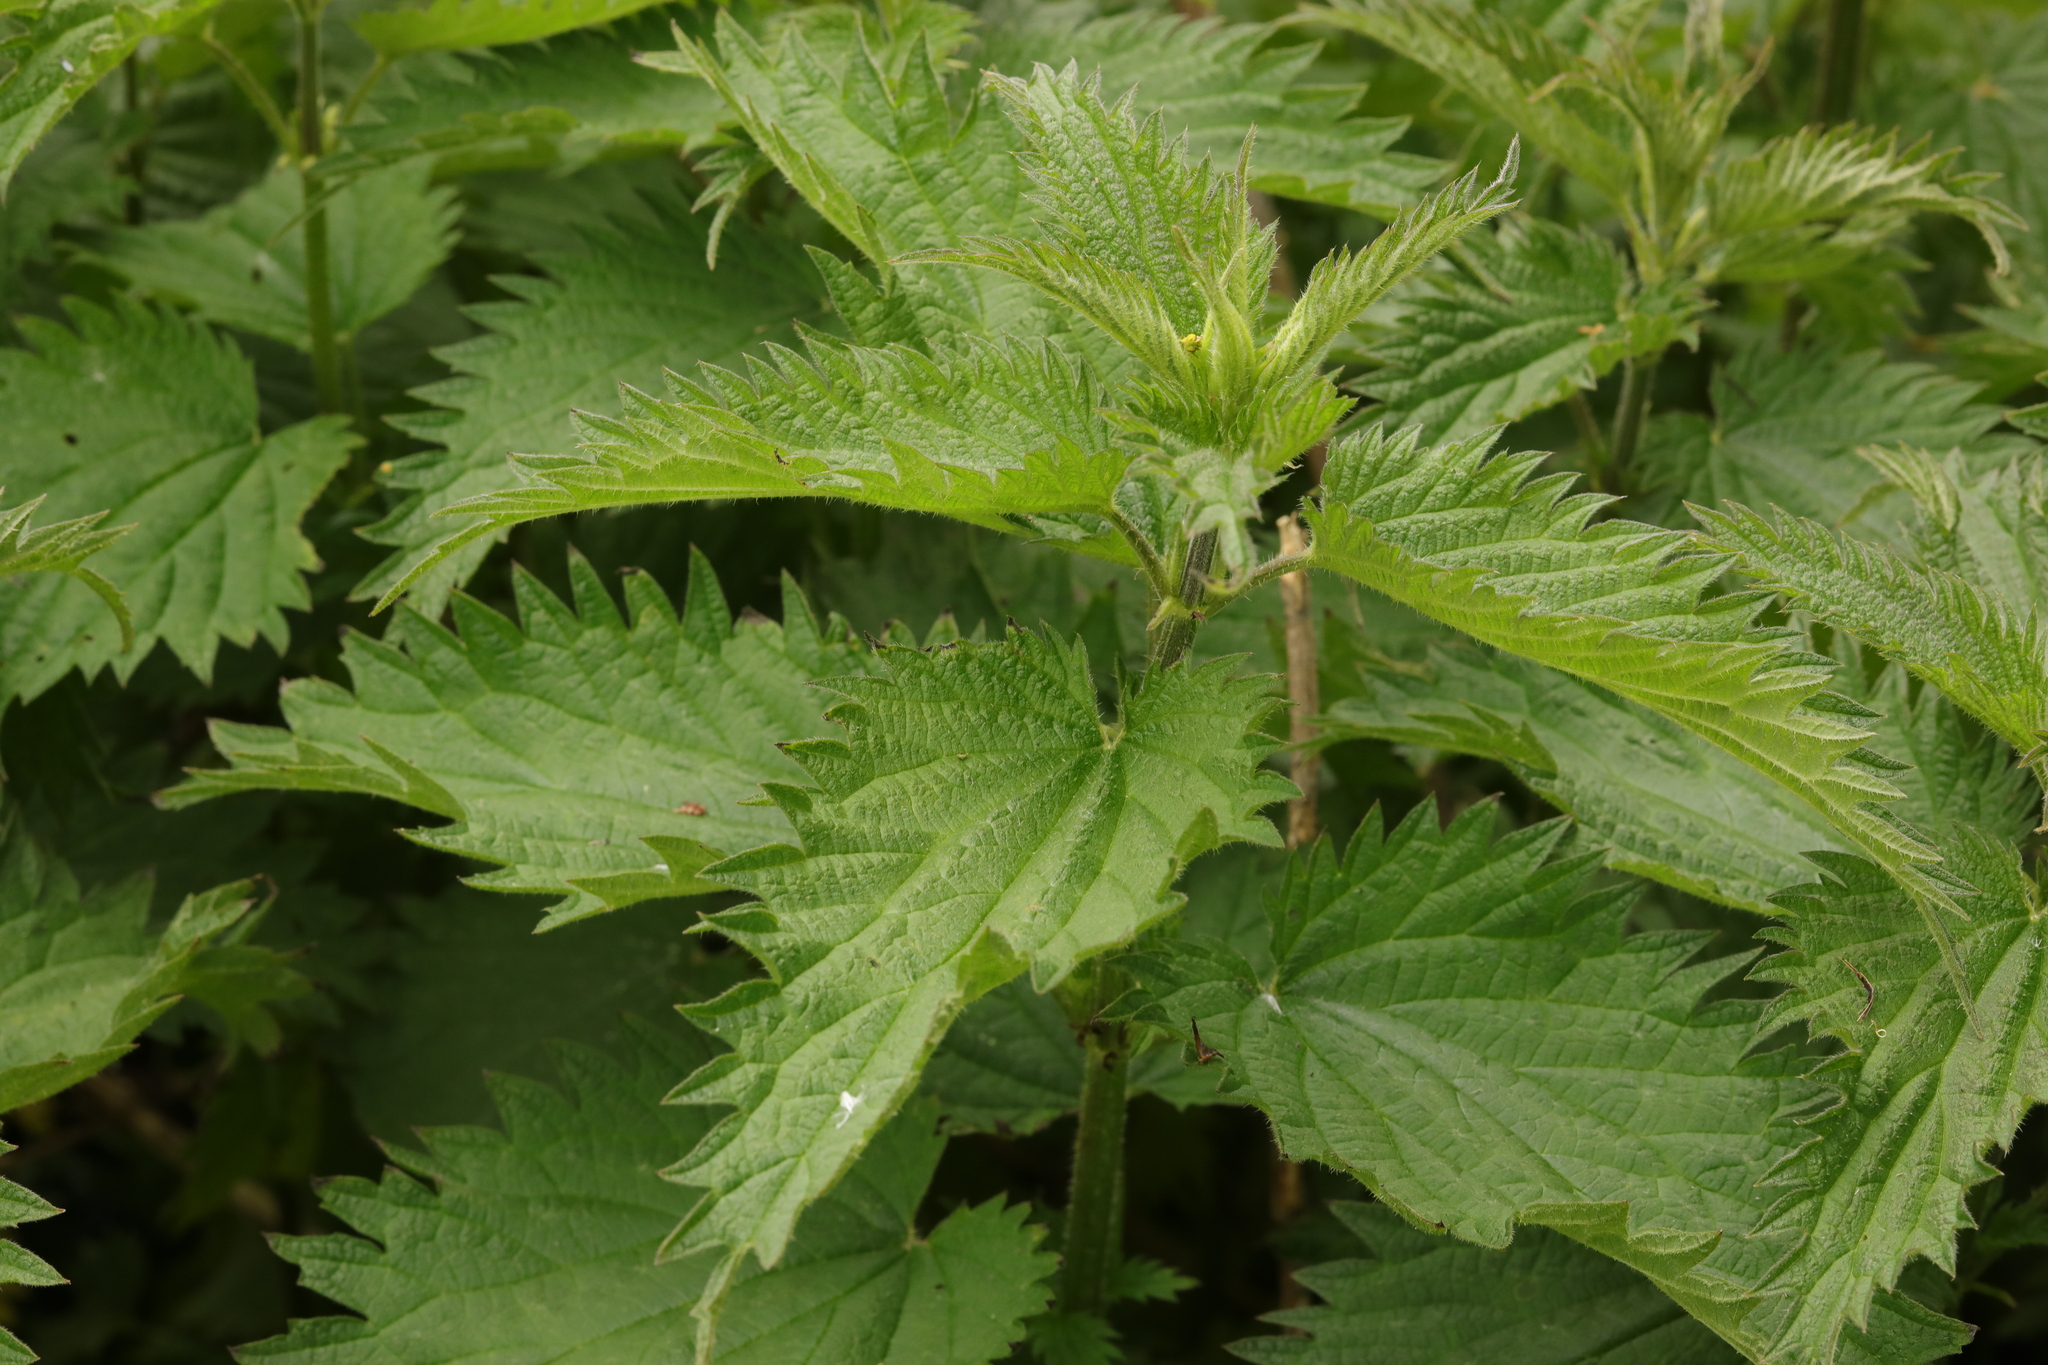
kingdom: Plantae
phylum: Tracheophyta
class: Magnoliopsida
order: Rosales
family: Urticaceae
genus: Urtica
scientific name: Urtica dioica
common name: Common nettle
